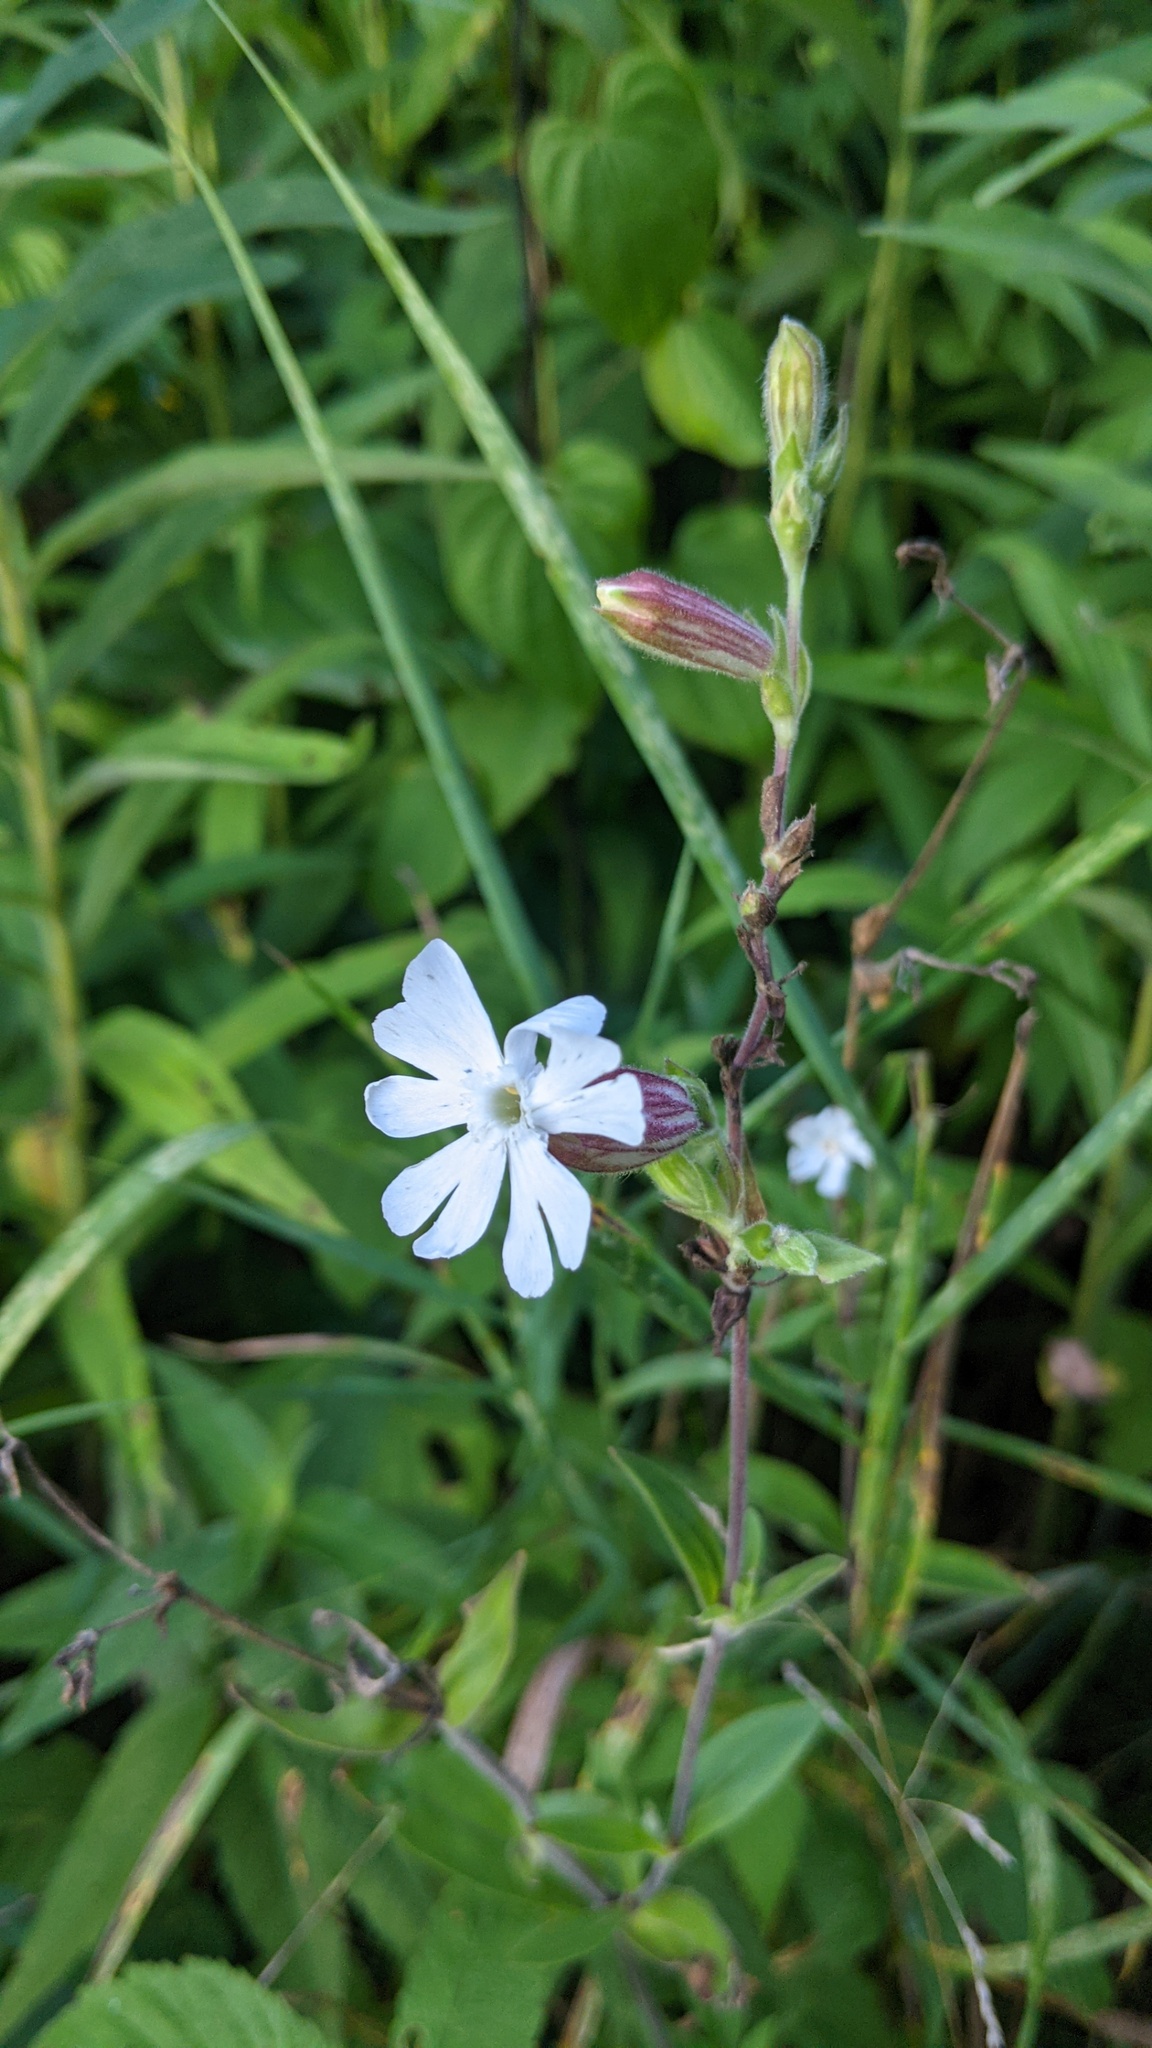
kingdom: Plantae
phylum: Tracheophyta
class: Magnoliopsida
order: Caryophyllales
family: Caryophyllaceae
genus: Silene
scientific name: Silene latifolia
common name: White campion
